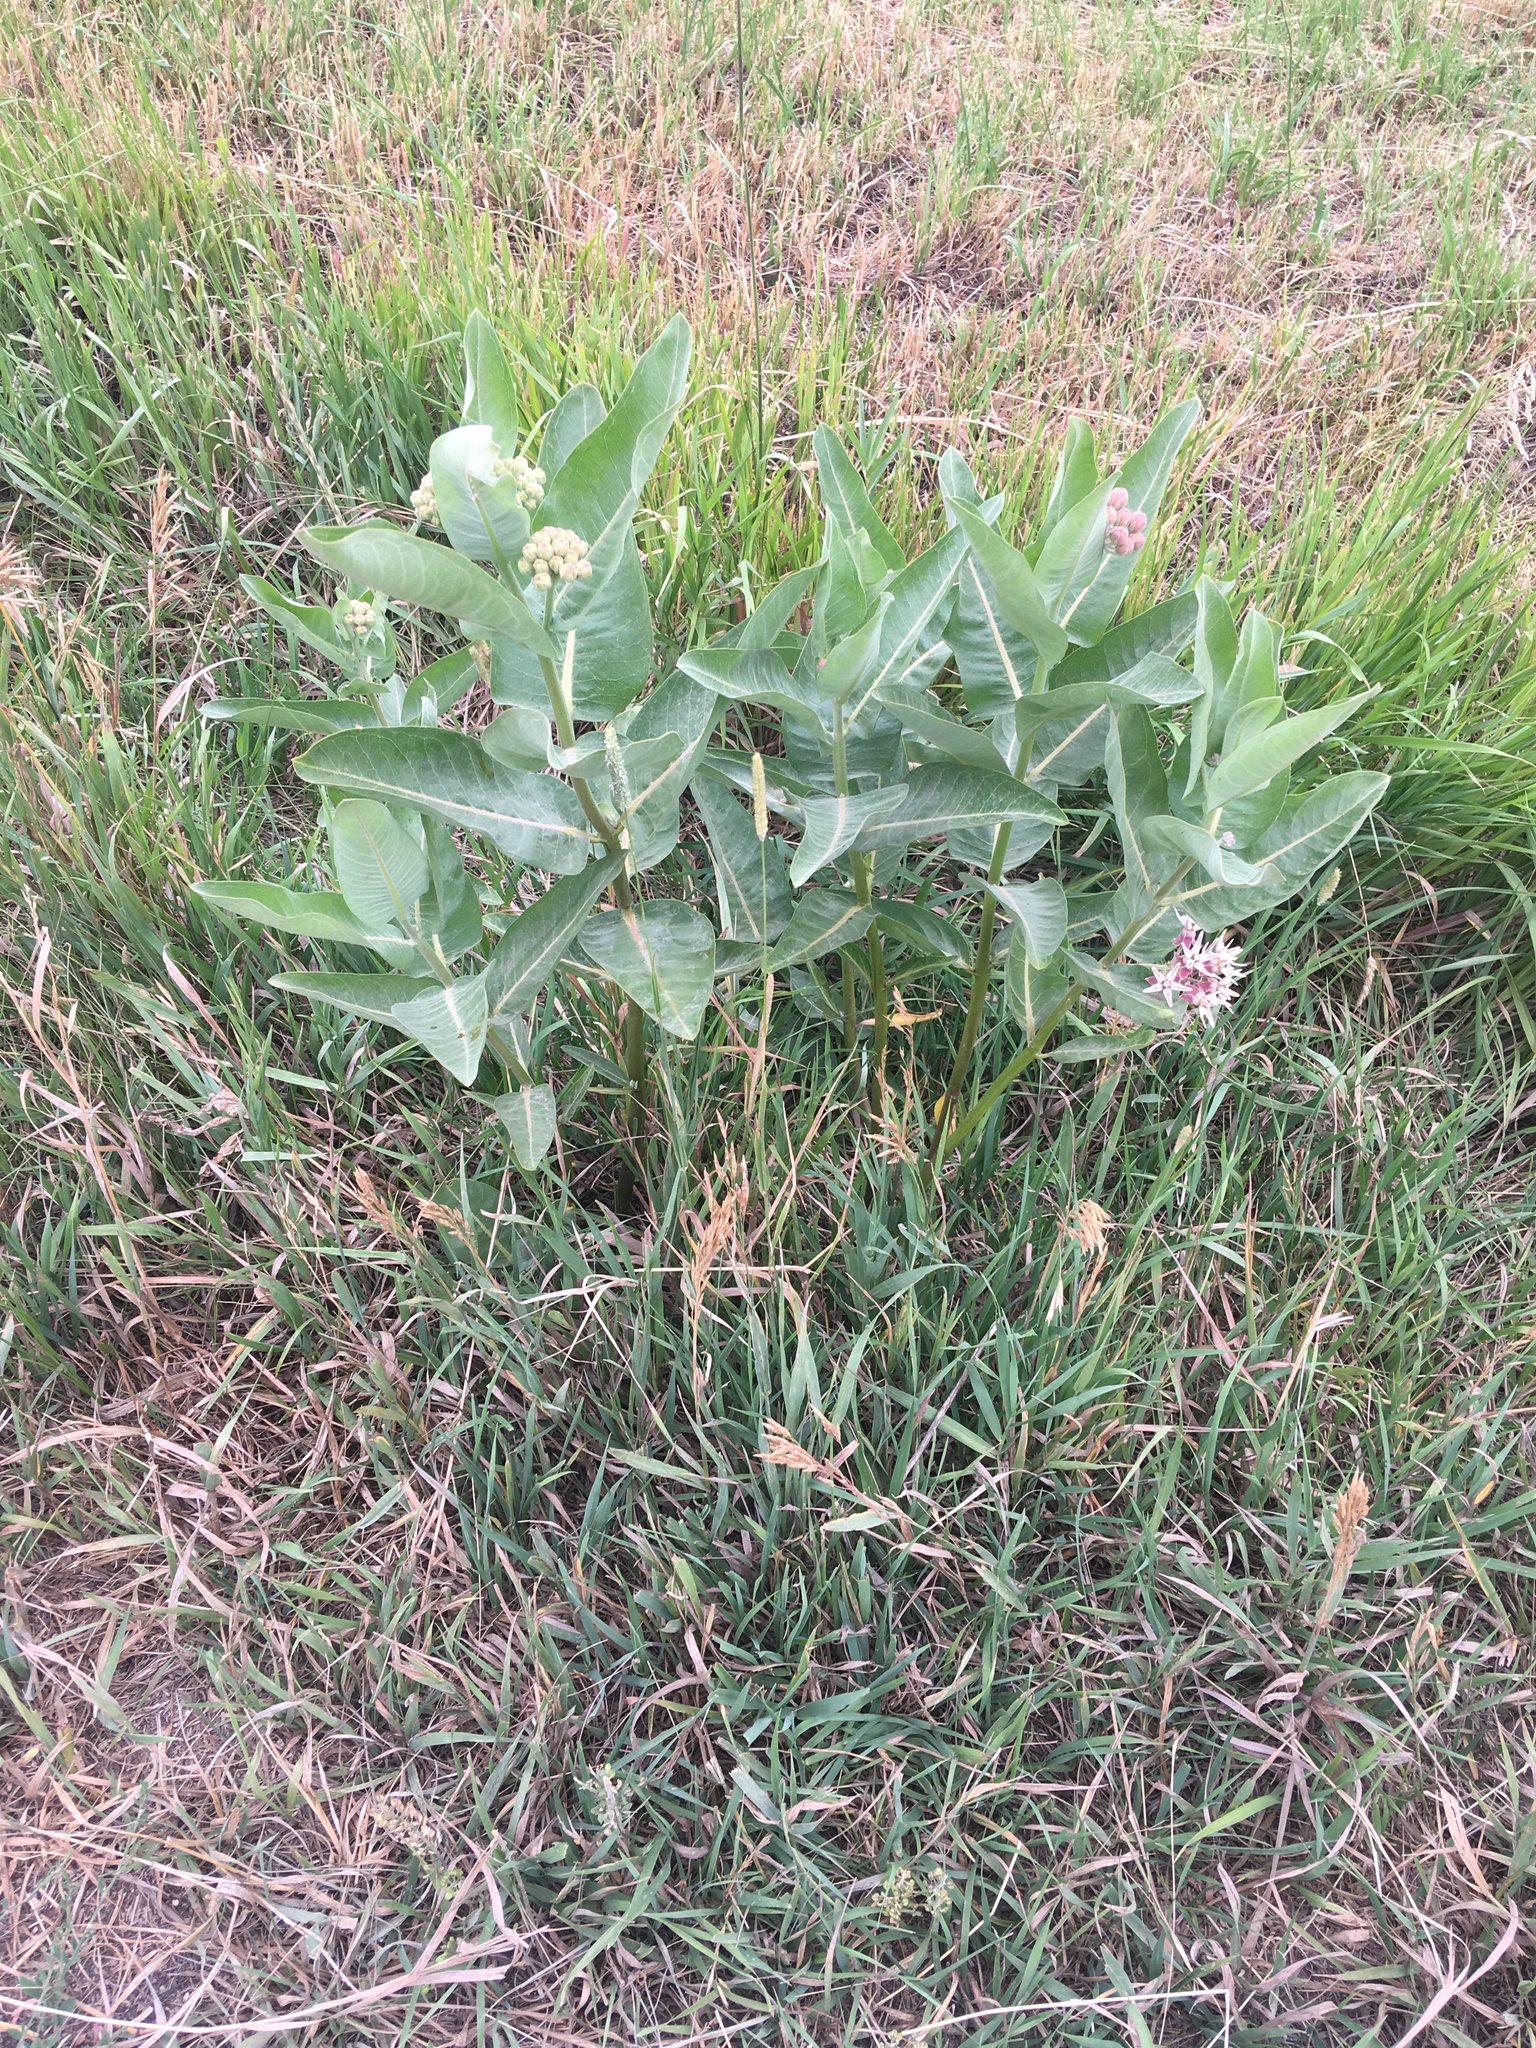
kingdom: Plantae
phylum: Tracheophyta
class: Magnoliopsida
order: Gentianales
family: Apocynaceae
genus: Asclepias
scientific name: Asclepias speciosa
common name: Showy milkweed
